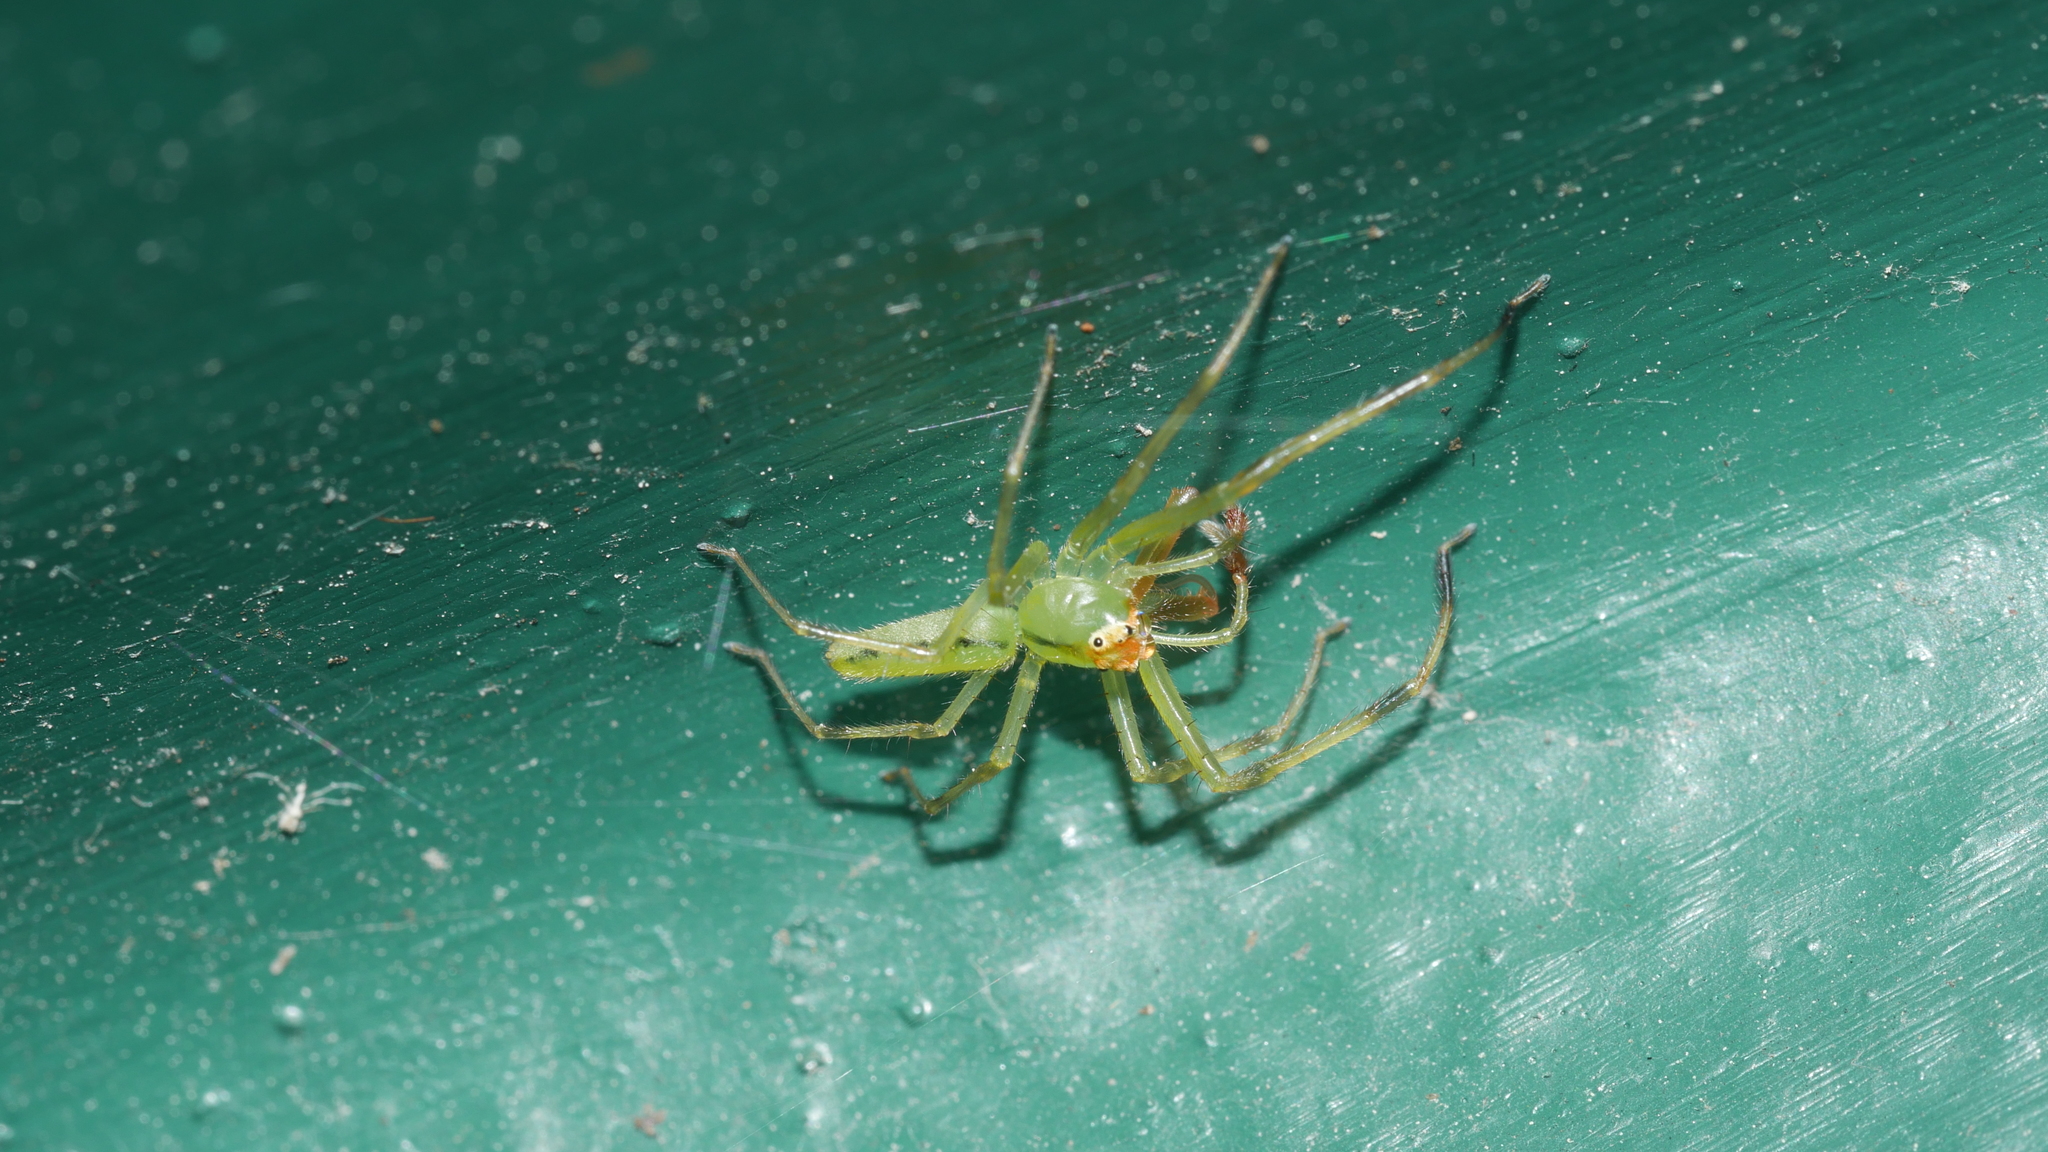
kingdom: Animalia
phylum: Arthropoda
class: Arachnida
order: Araneae
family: Salticidae
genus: Lyssomanes
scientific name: Lyssomanes viridis
